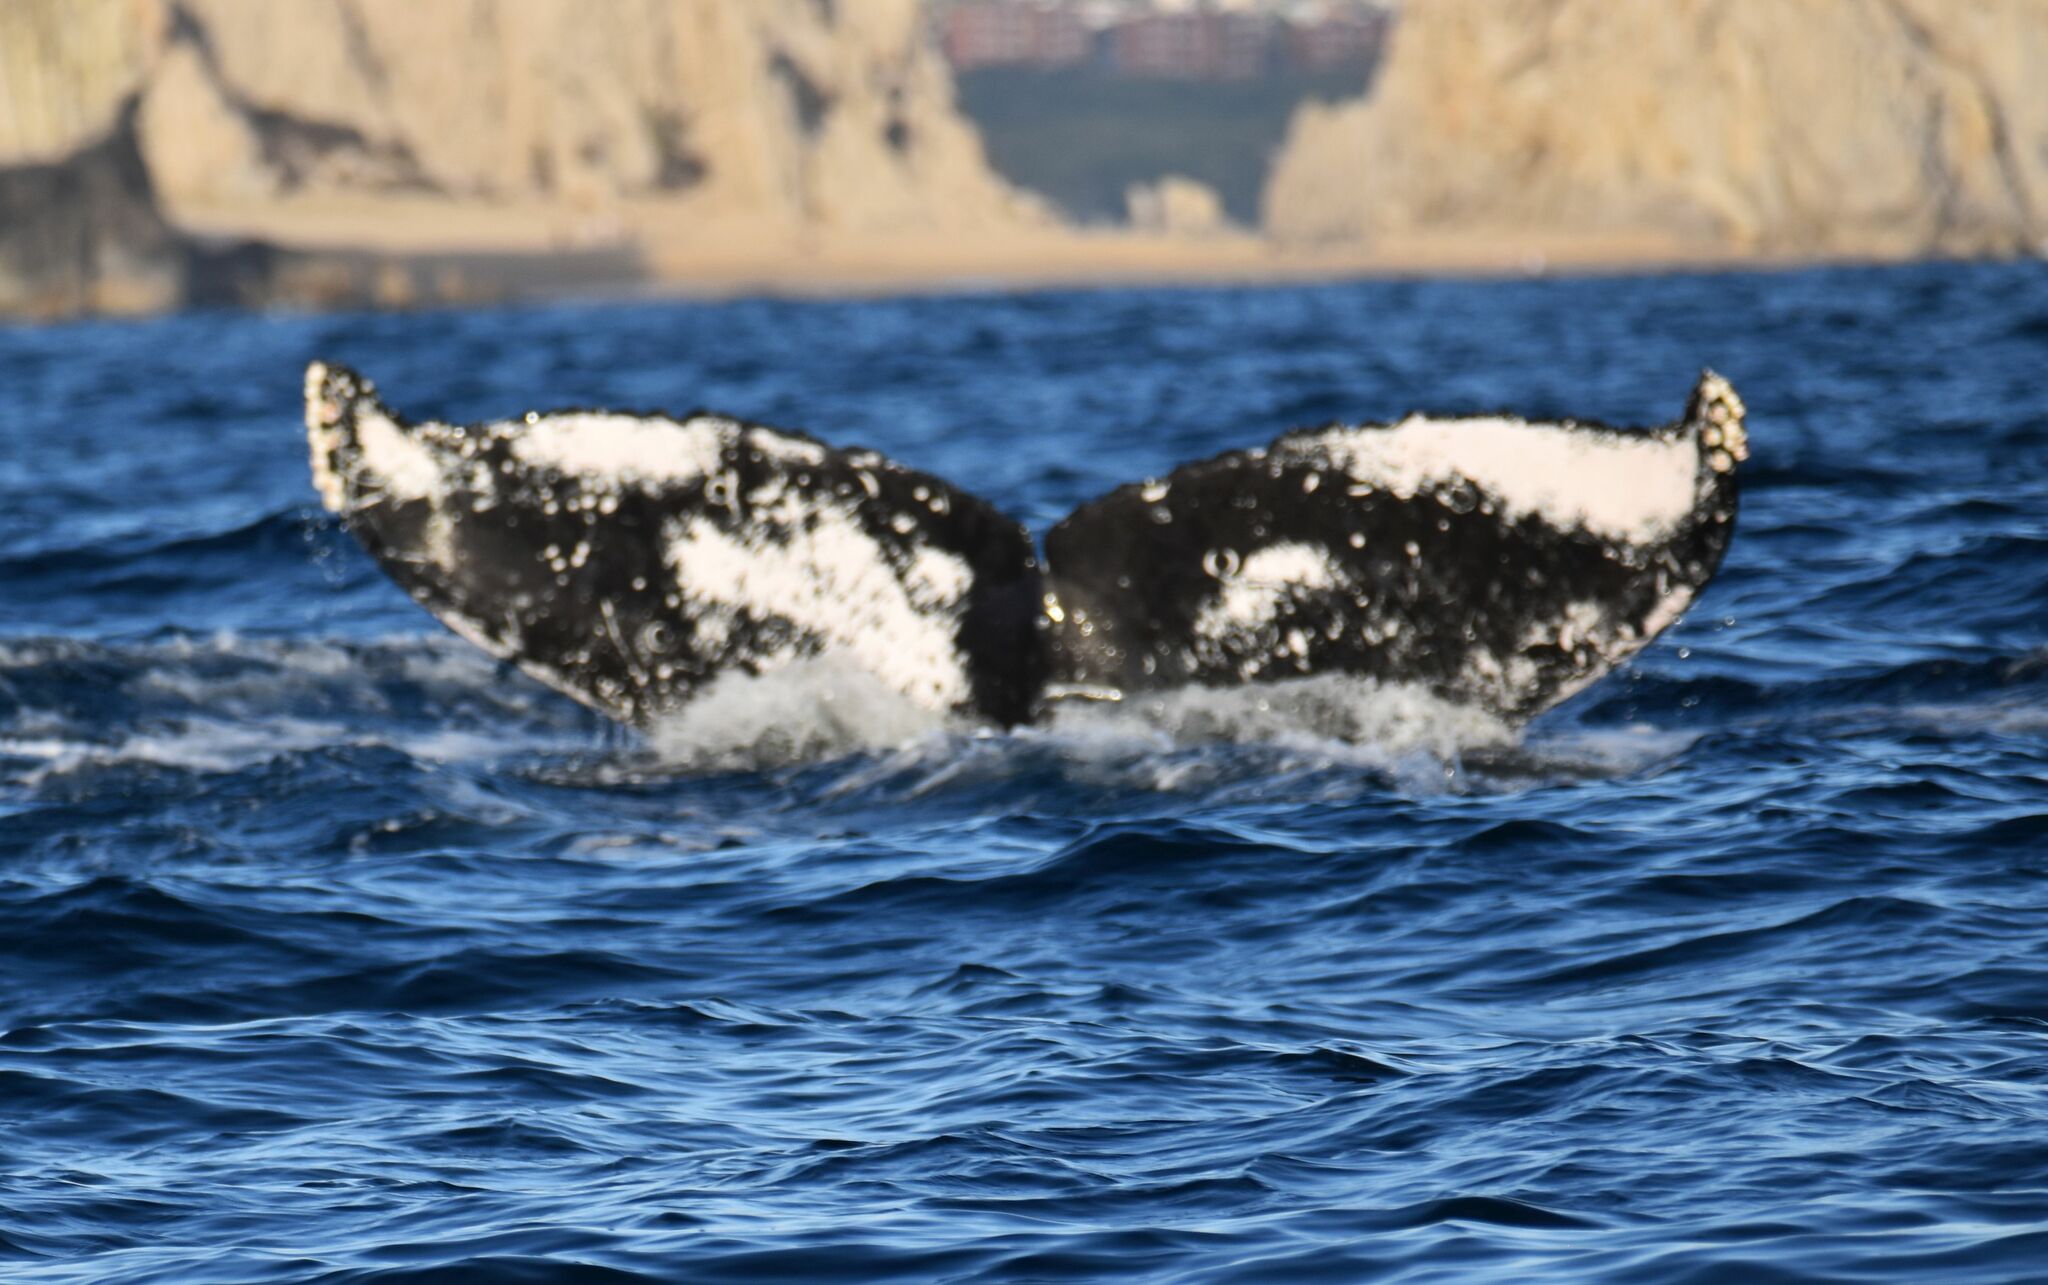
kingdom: Animalia
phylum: Chordata
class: Mammalia
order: Cetacea
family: Balaenopteridae
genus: Megaptera
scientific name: Megaptera novaeangliae
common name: Humpback whale
